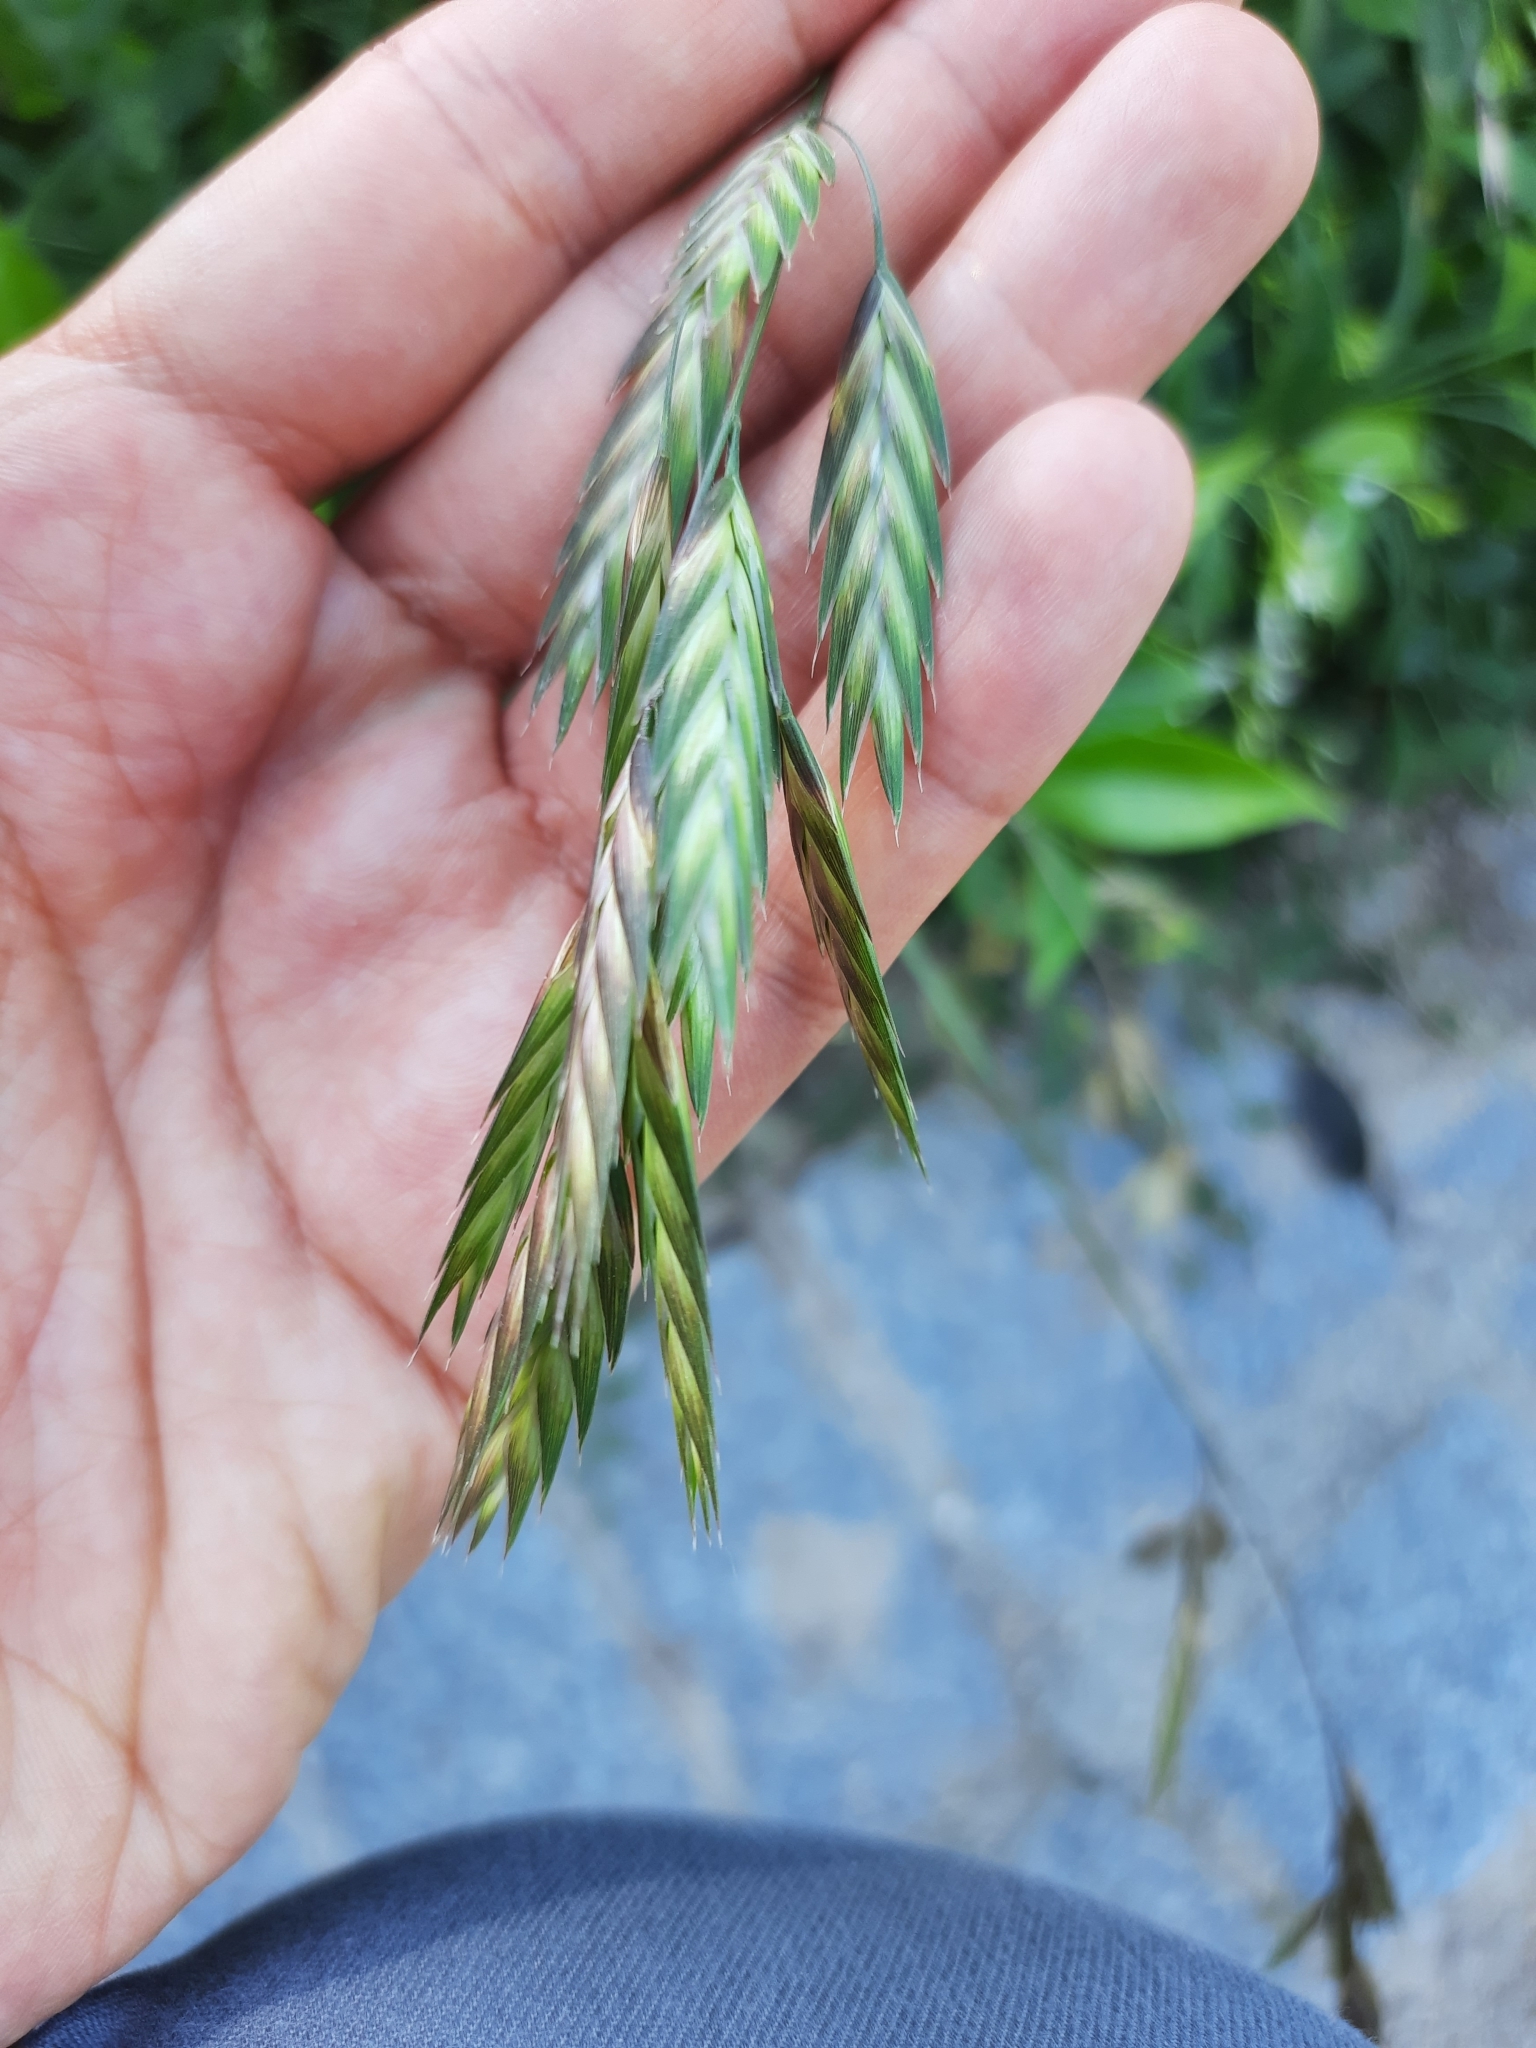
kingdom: Plantae
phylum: Tracheophyta
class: Liliopsida
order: Poales
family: Poaceae
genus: Bromus
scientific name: Bromus catharticus
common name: Rescuegrass
